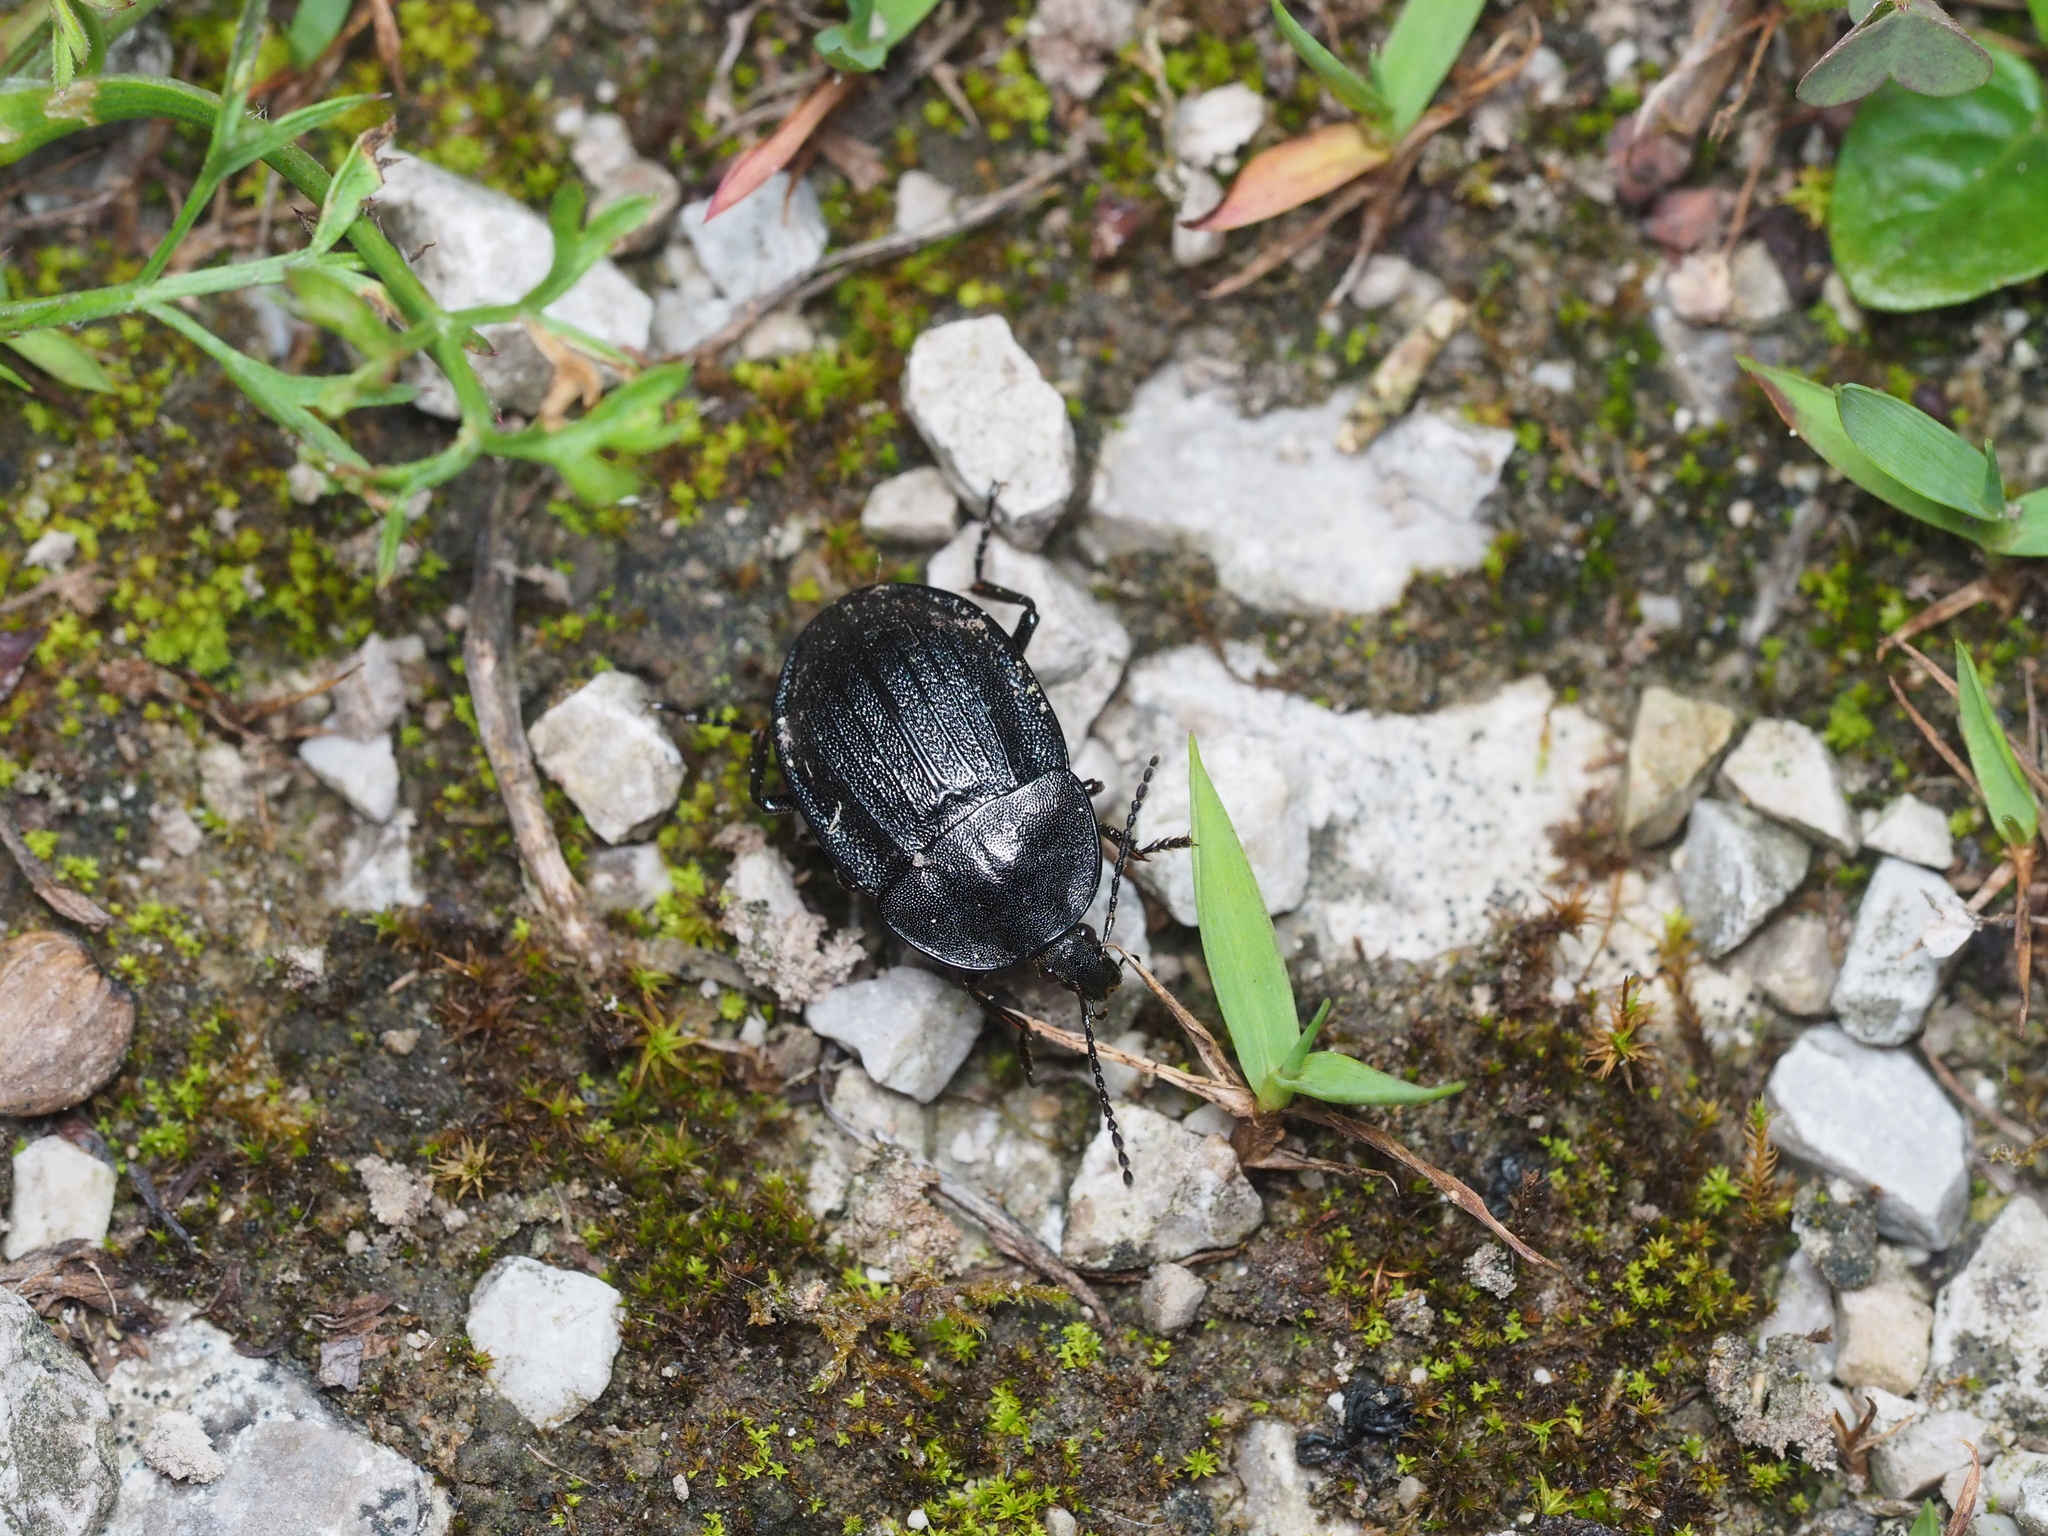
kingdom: Animalia
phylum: Arthropoda
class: Insecta
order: Coleoptera
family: Staphylinidae
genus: Silpha
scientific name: Silpha atrata
